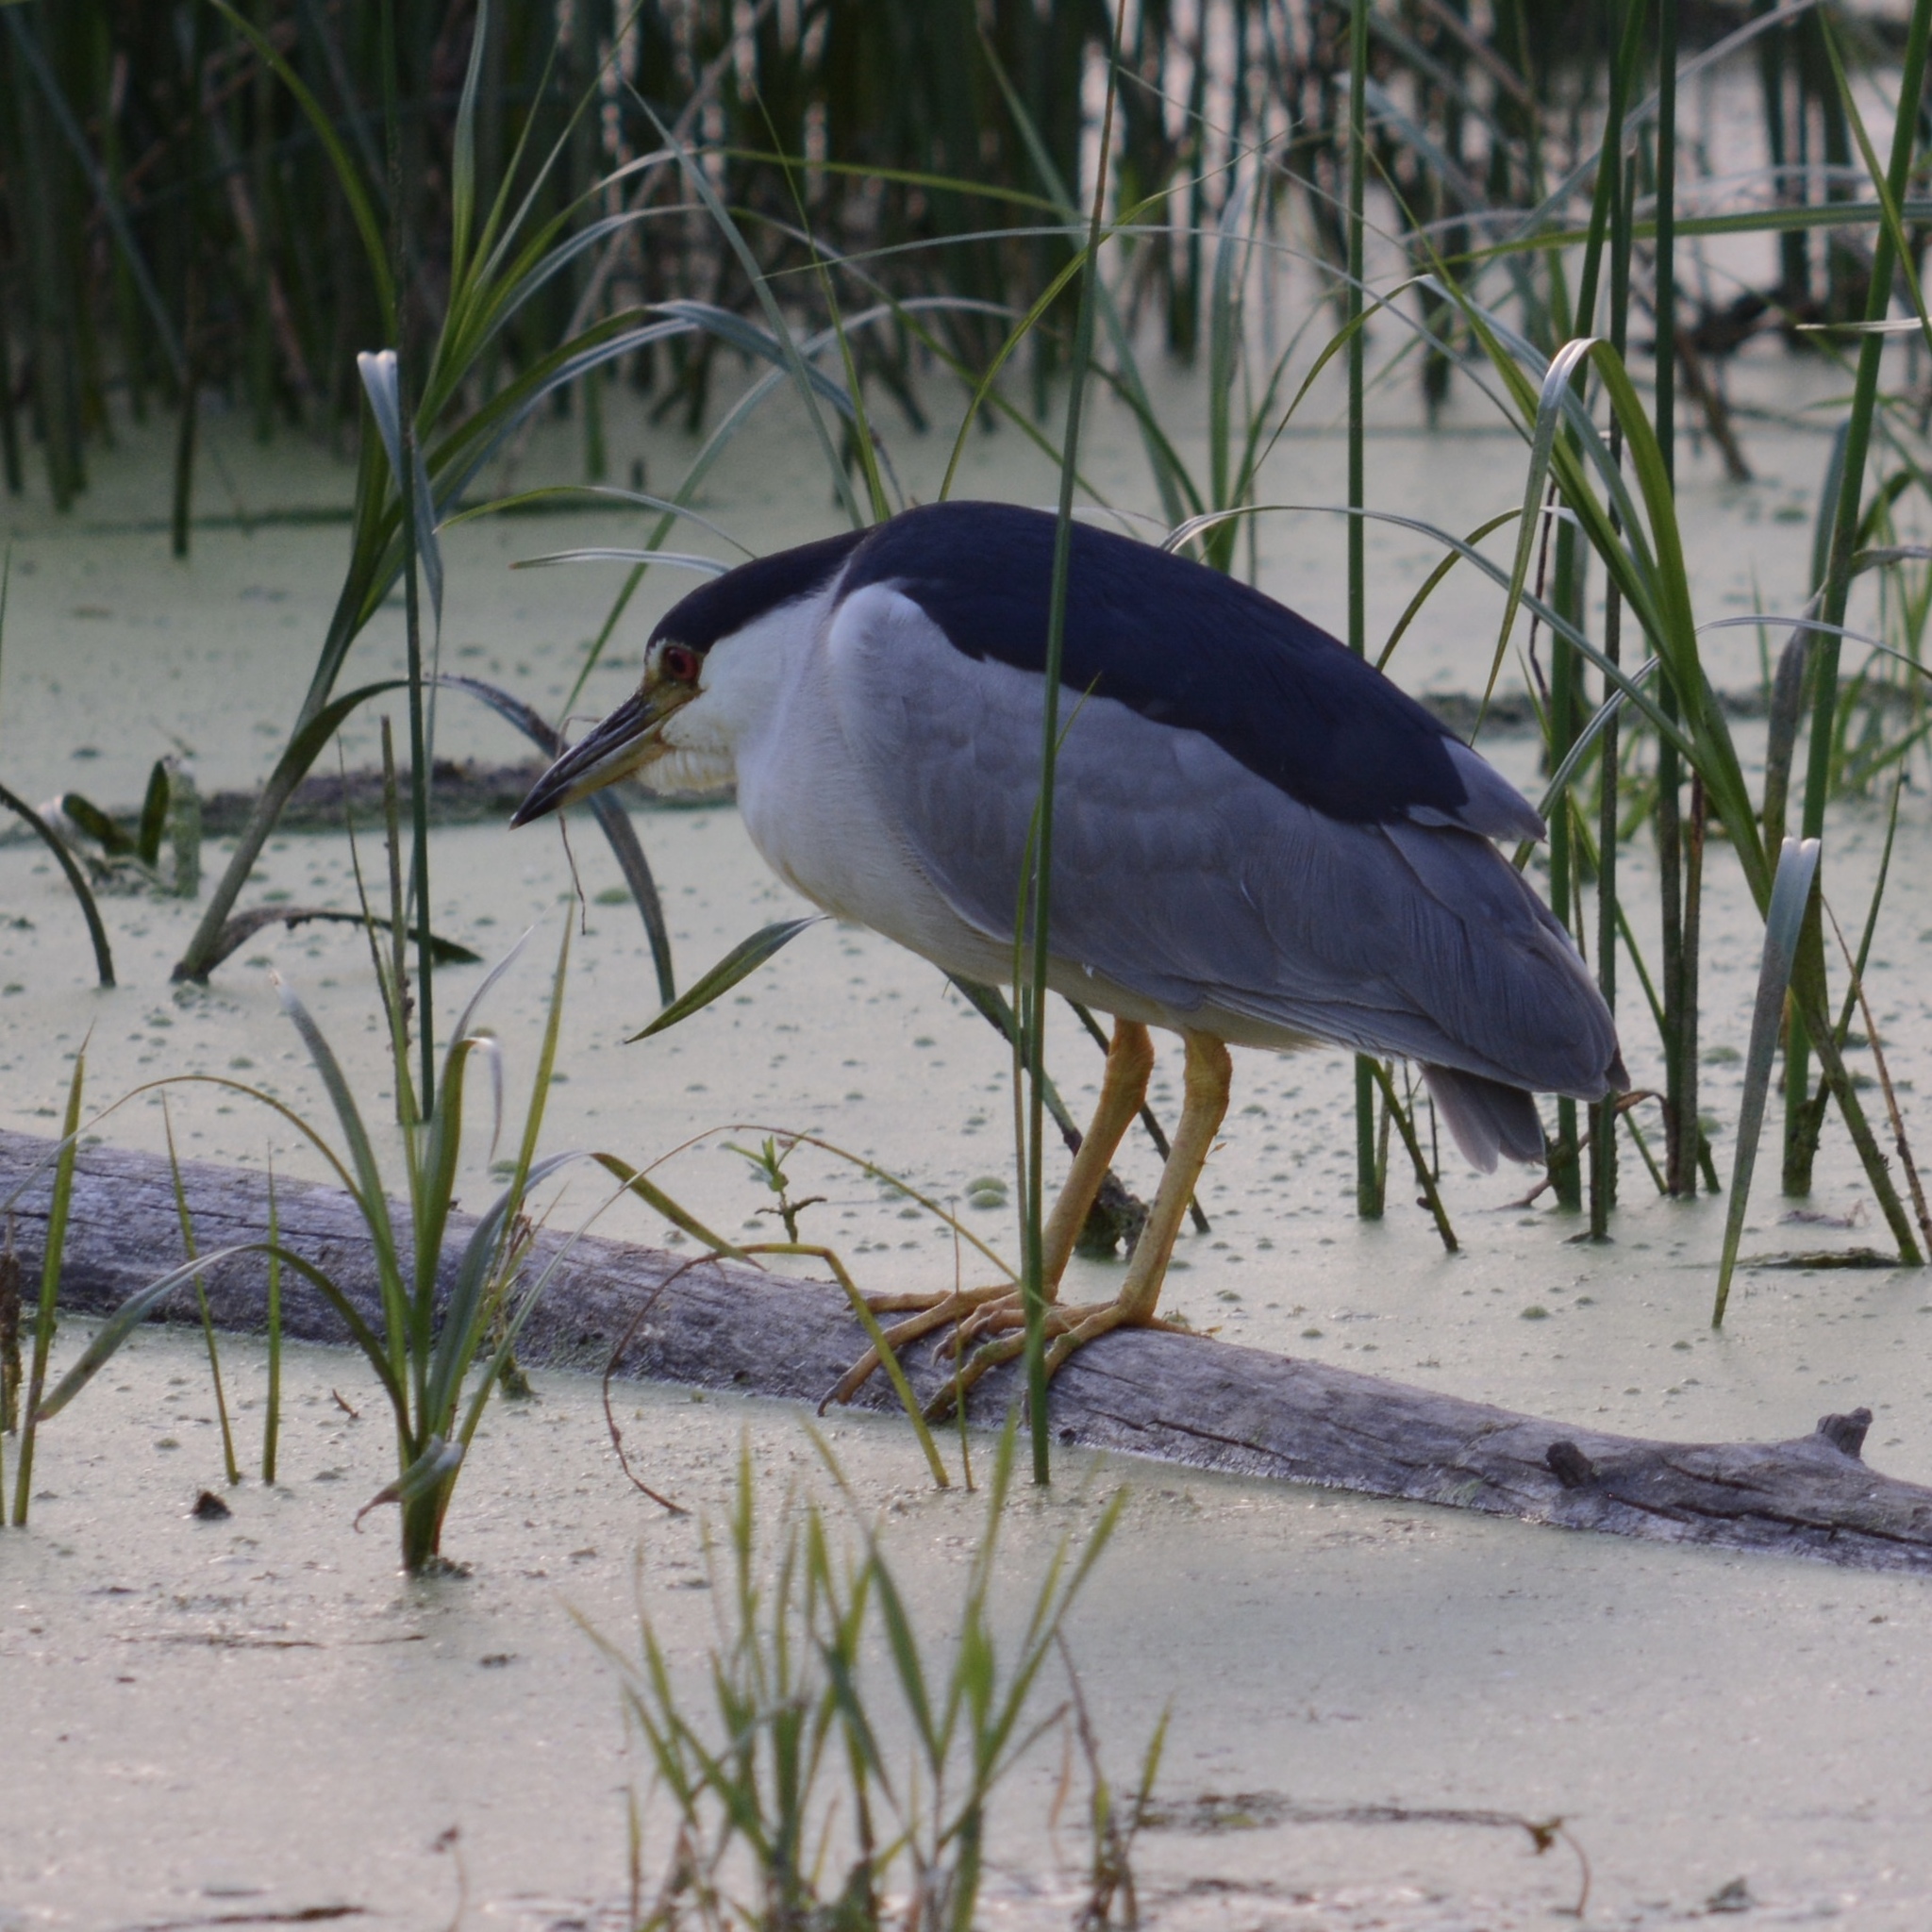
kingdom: Animalia
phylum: Chordata
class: Aves
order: Pelecaniformes
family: Ardeidae
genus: Nycticorax
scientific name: Nycticorax nycticorax
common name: Black-crowned night heron
